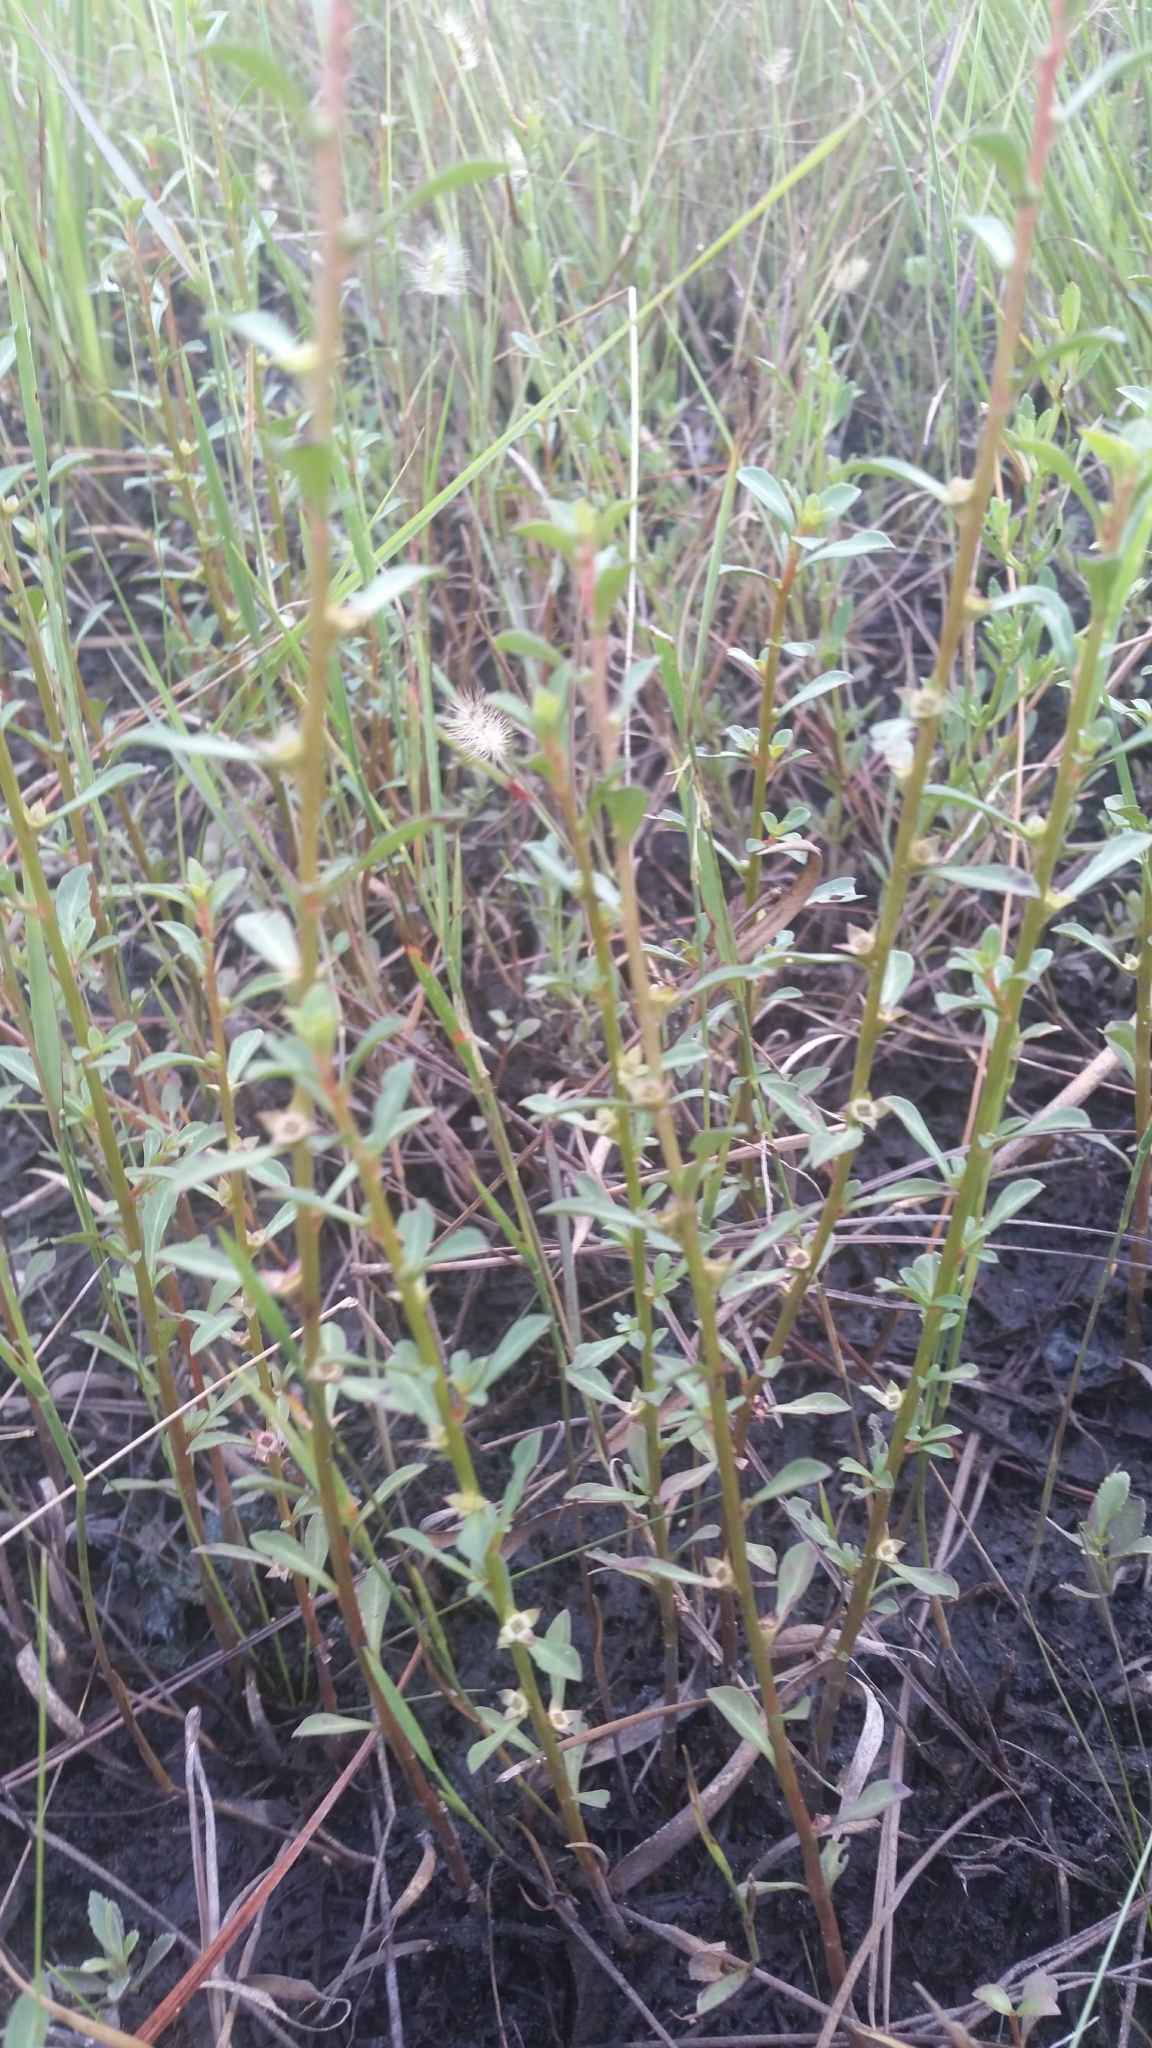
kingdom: Plantae
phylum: Tracheophyta
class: Magnoliopsida
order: Myrtales
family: Onagraceae
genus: Ludwigia
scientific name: Ludwigia curtissii
